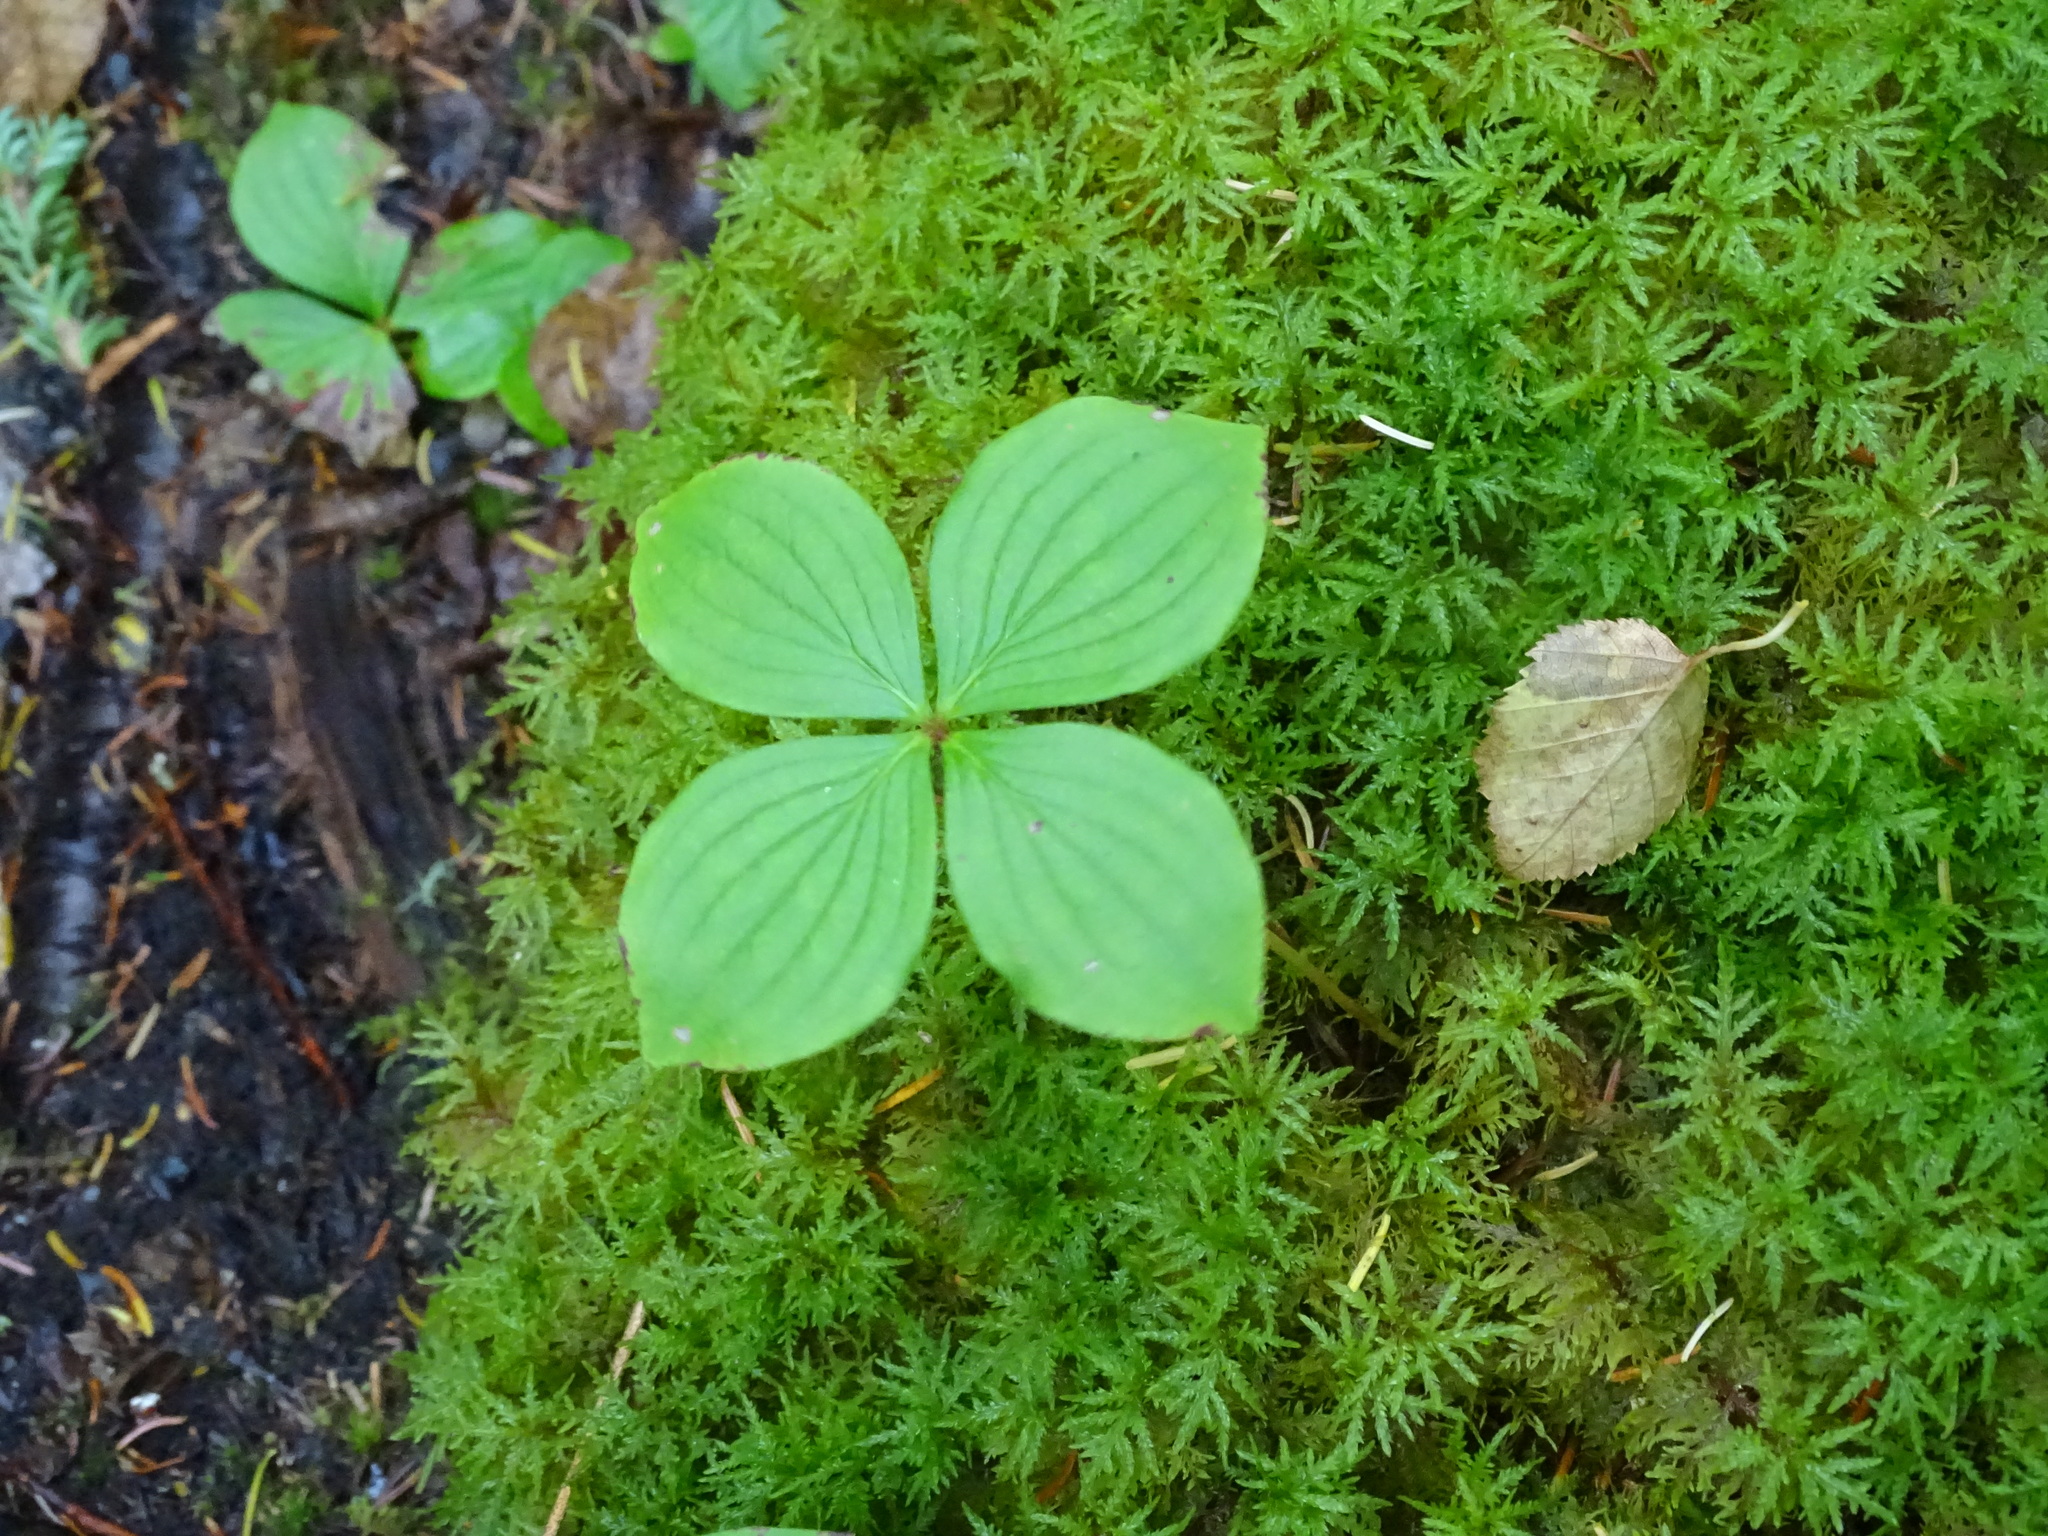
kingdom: Plantae
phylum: Tracheophyta
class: Magnoliopsida
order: Cornales
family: Cornaceae
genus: Cornus
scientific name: Cornus canadensis
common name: Creeping dogwood
